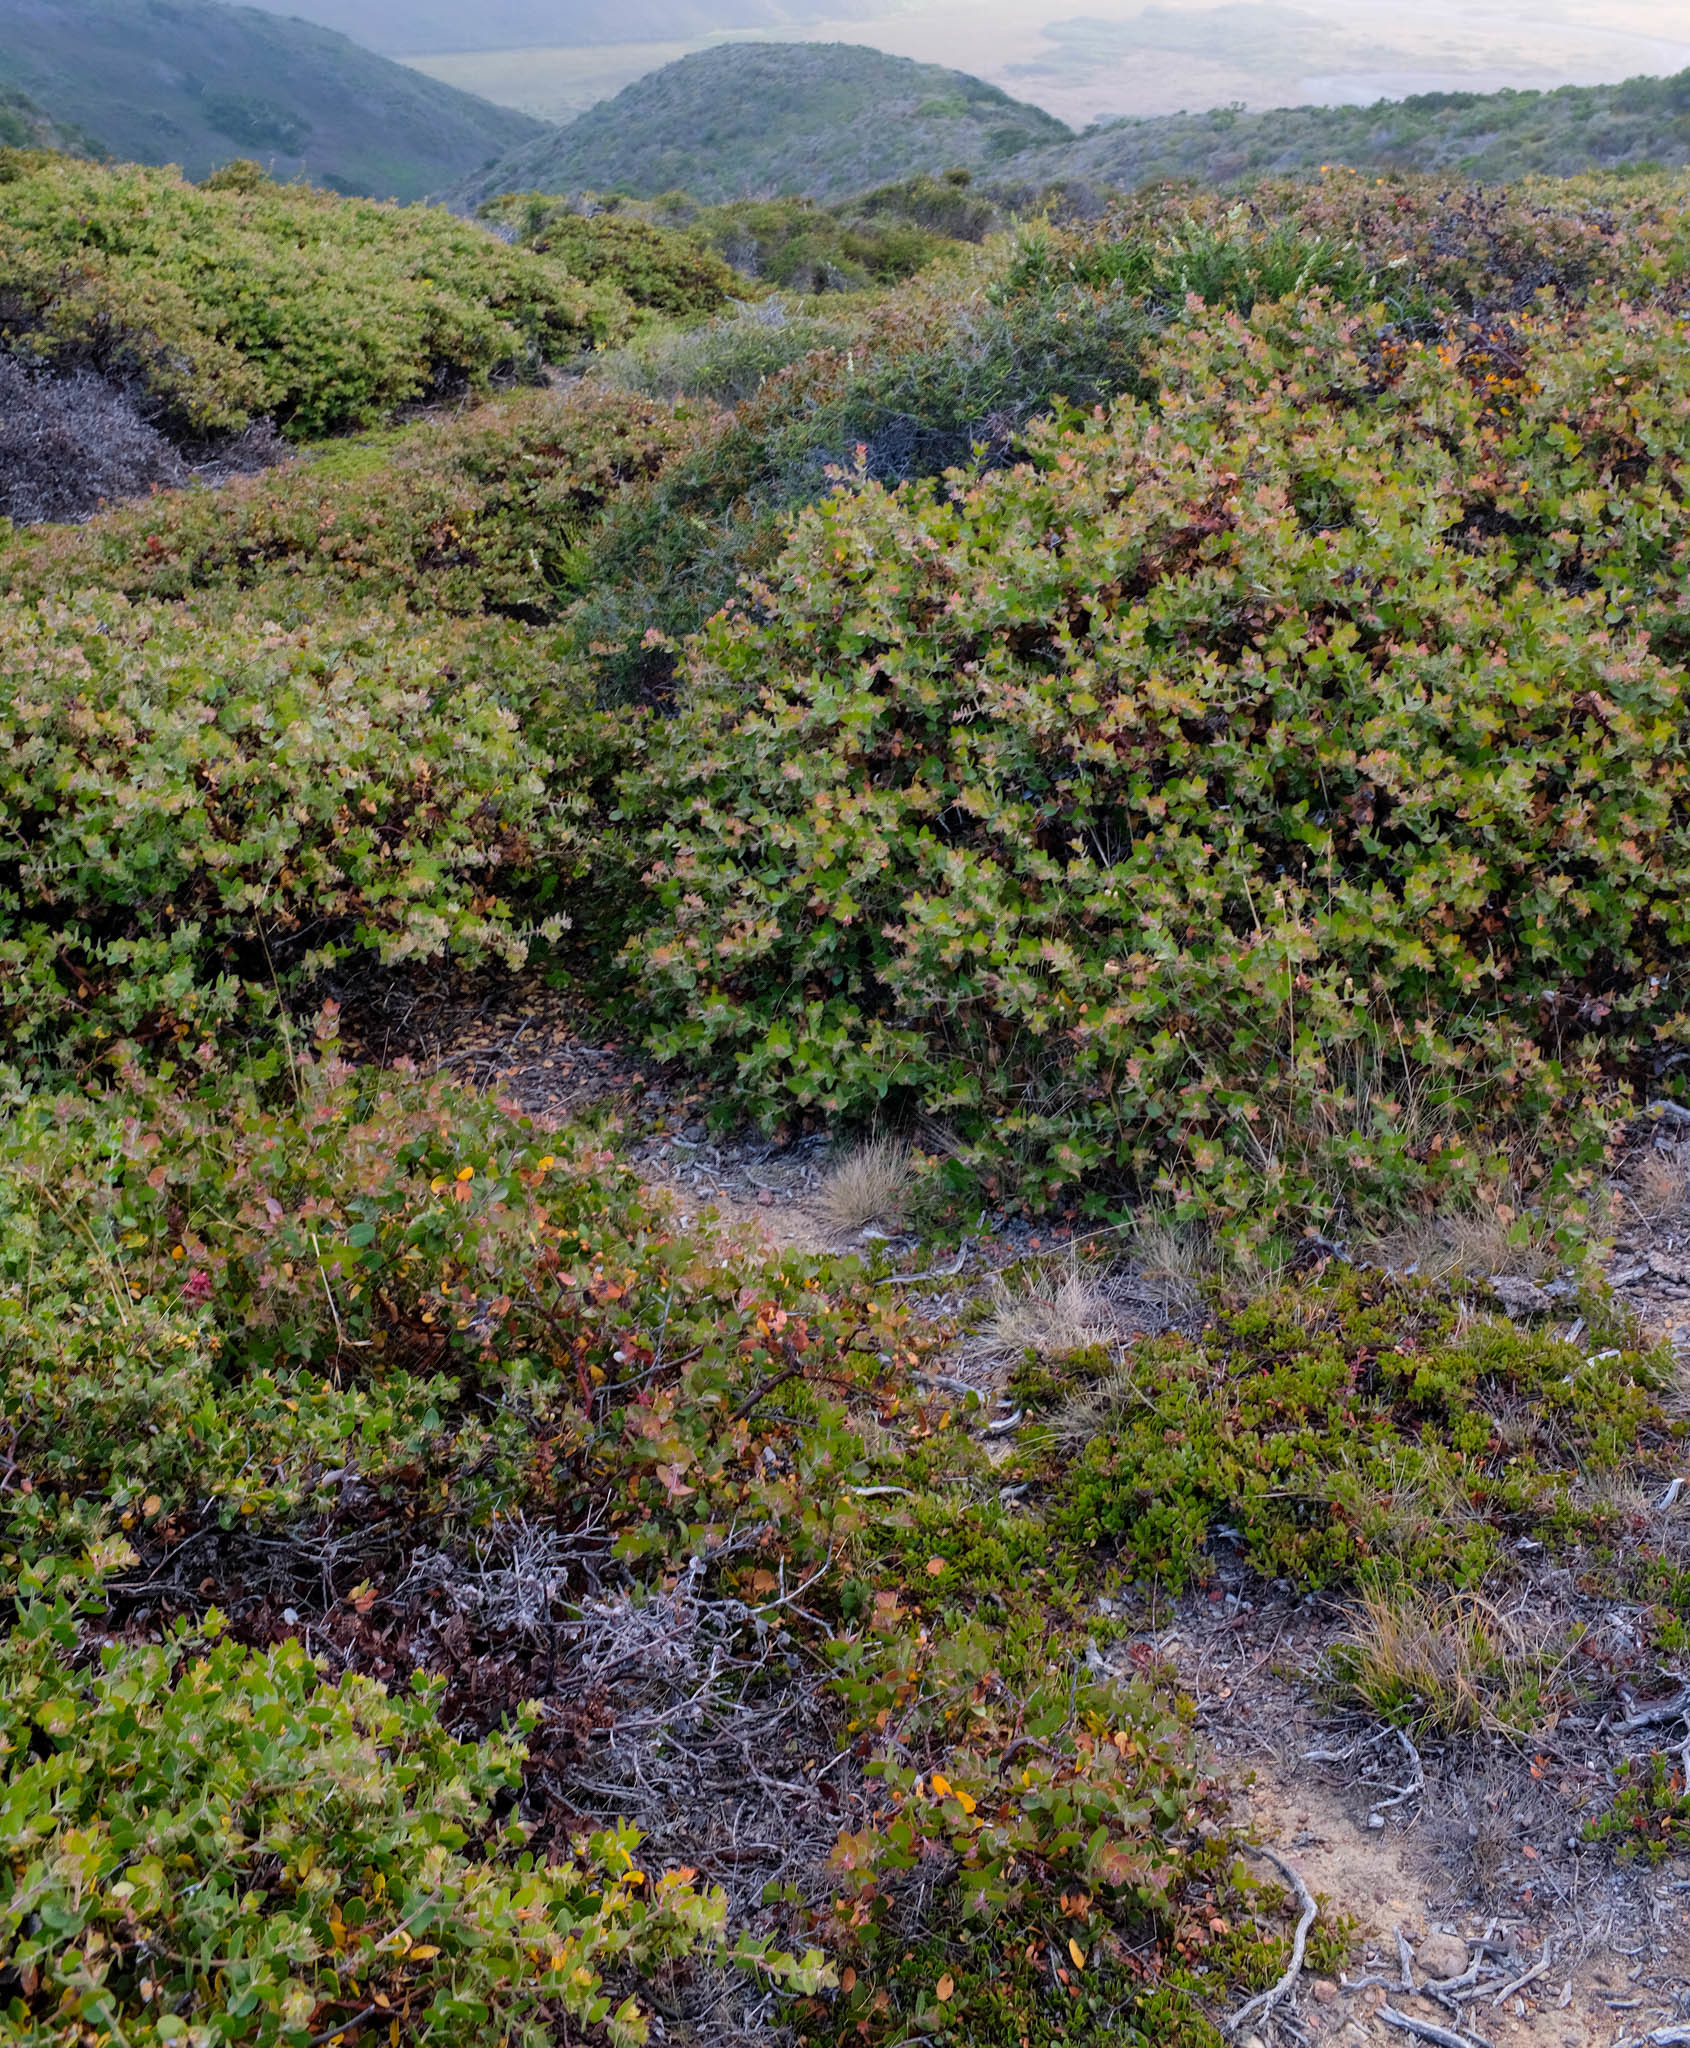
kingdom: Plantae
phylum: Tracheophyta
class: Magnoliopsida
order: Ericales
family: Ericaceae
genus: Arctostaphylos
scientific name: Arctostaphylos hookeri
